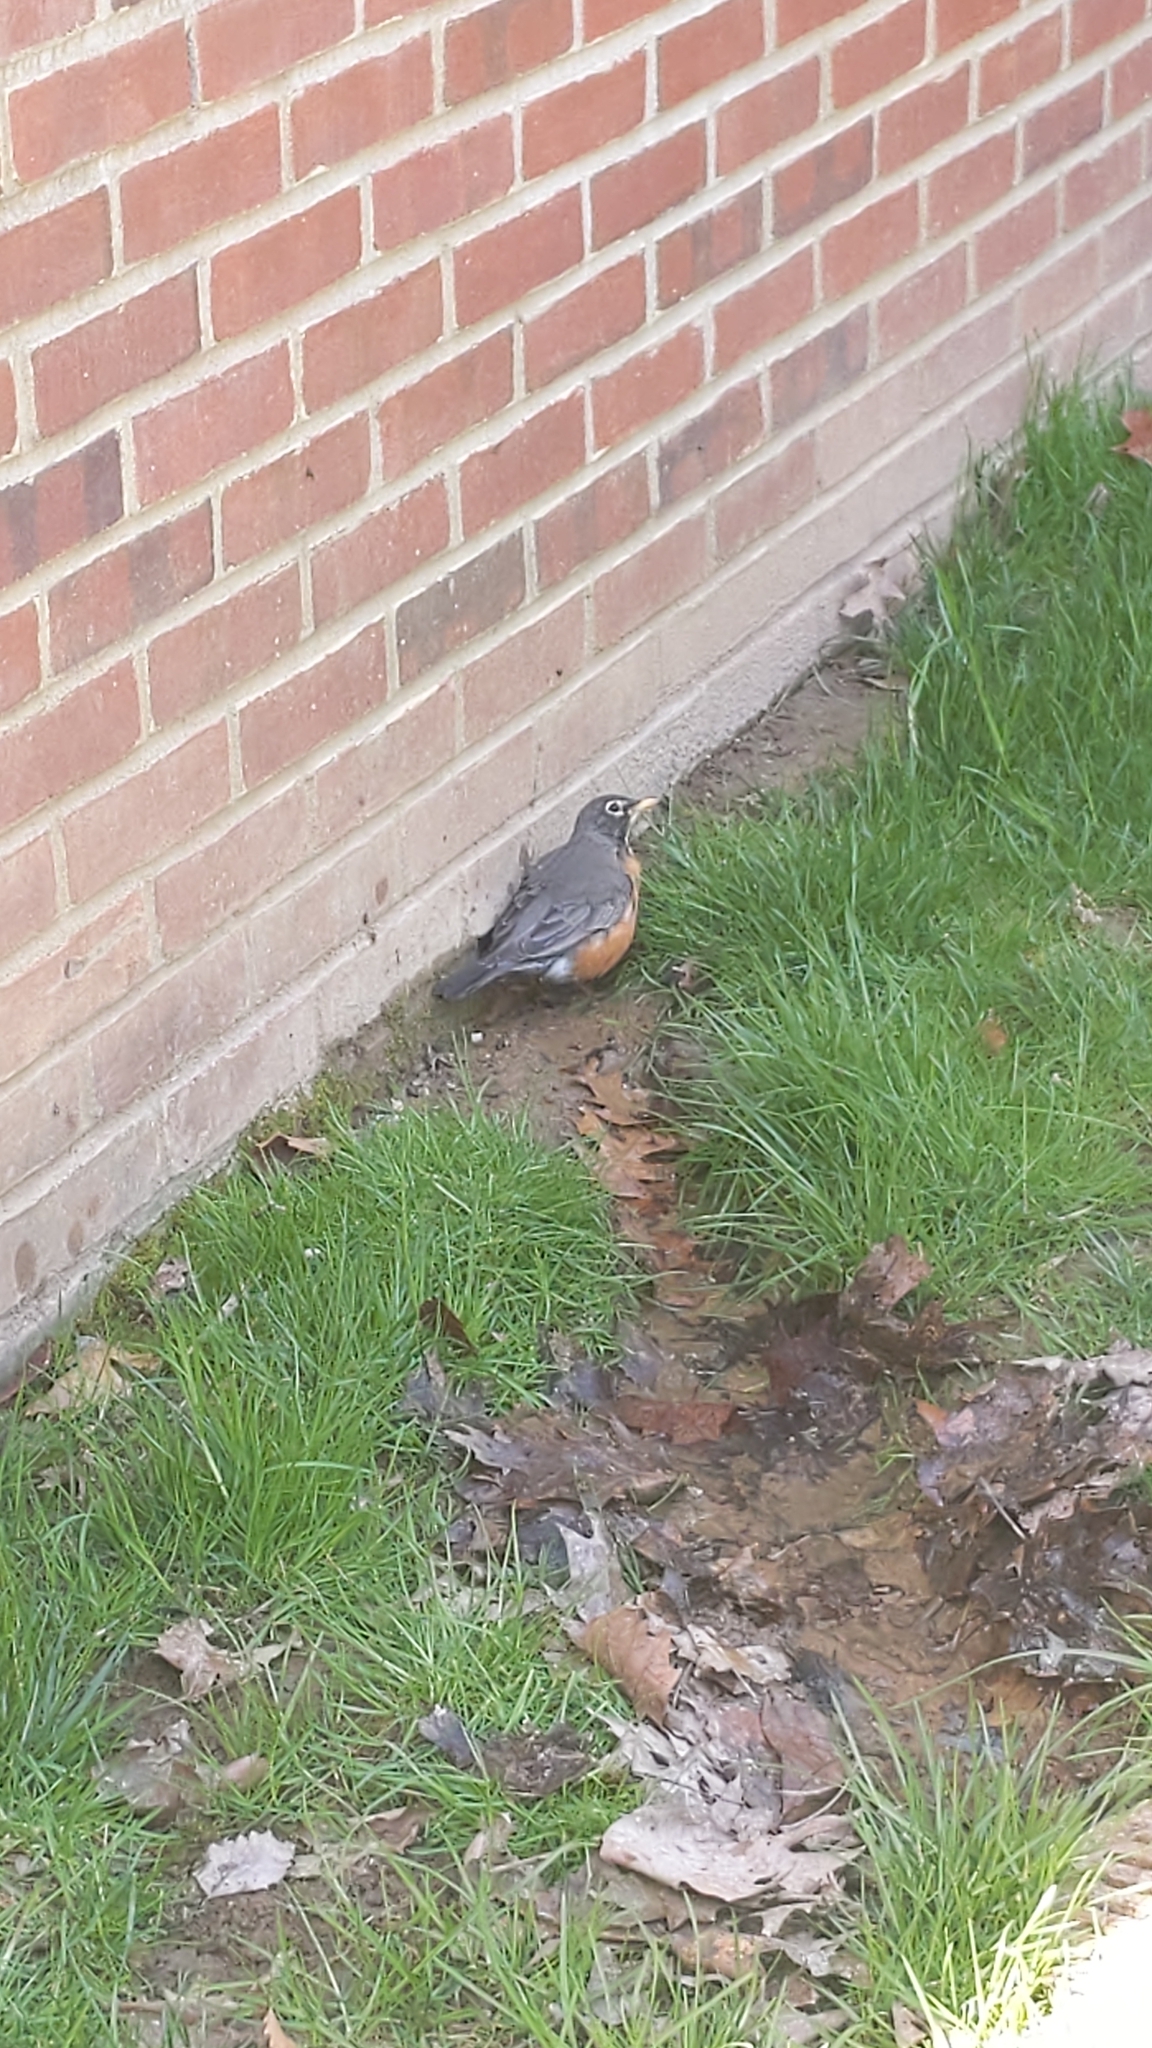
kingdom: Animalia
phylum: Chordata
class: Aves
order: Passeriformes
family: Turdidae
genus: Turdus
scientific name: Turdus migratorius
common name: American robin
